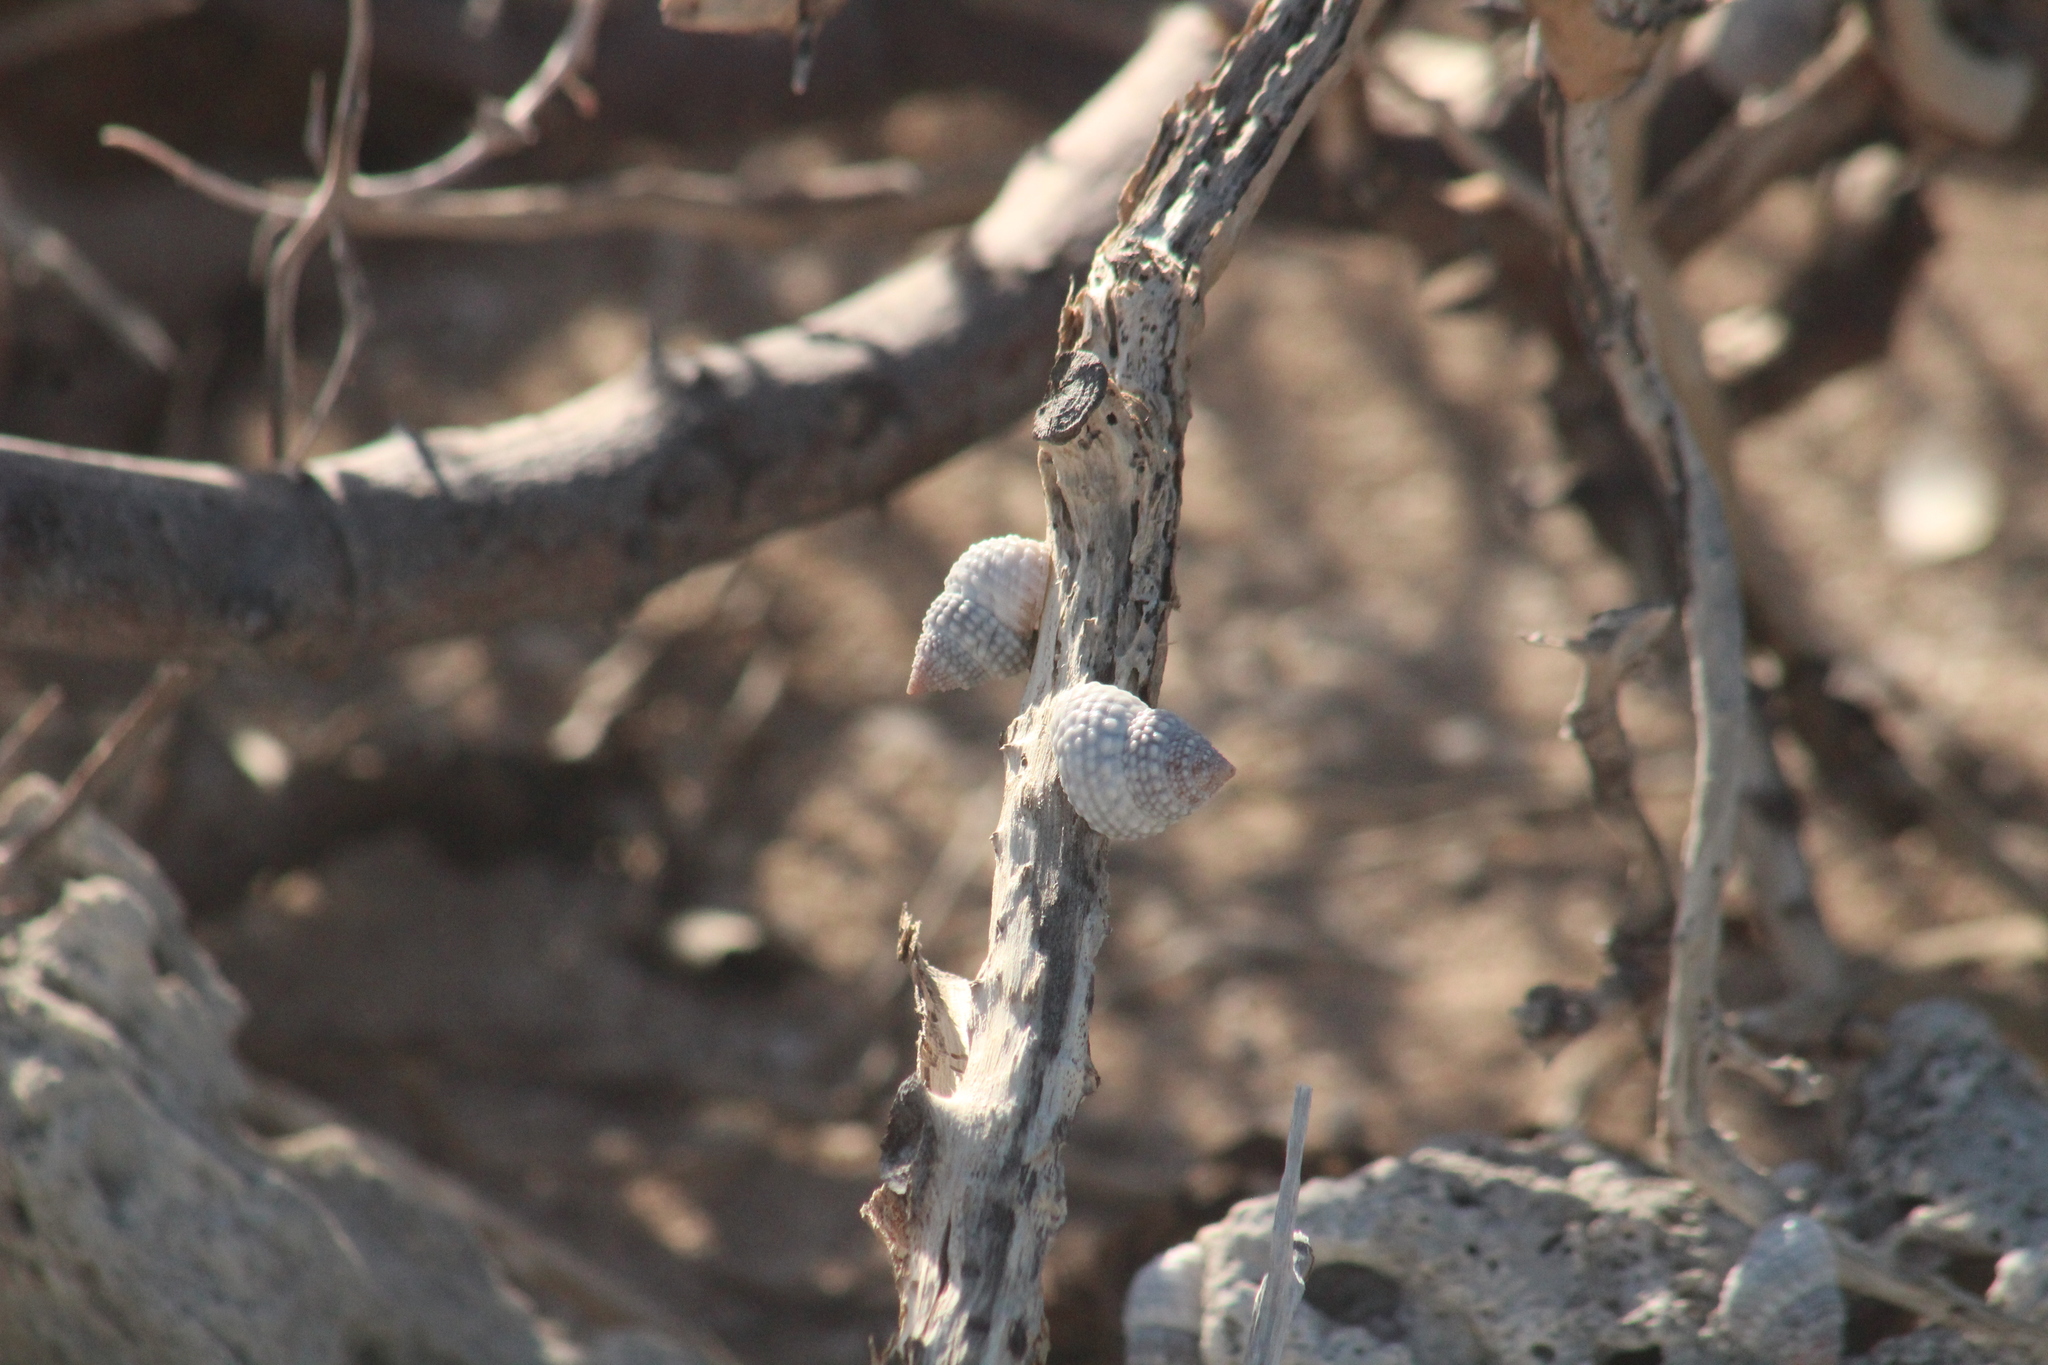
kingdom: Animalia
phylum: Mollusca
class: Gastropoda
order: Littorinimorpha
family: Littorinidae
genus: Cenchritis
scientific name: Cenchritis muricatus
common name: Beaded periwinkle
